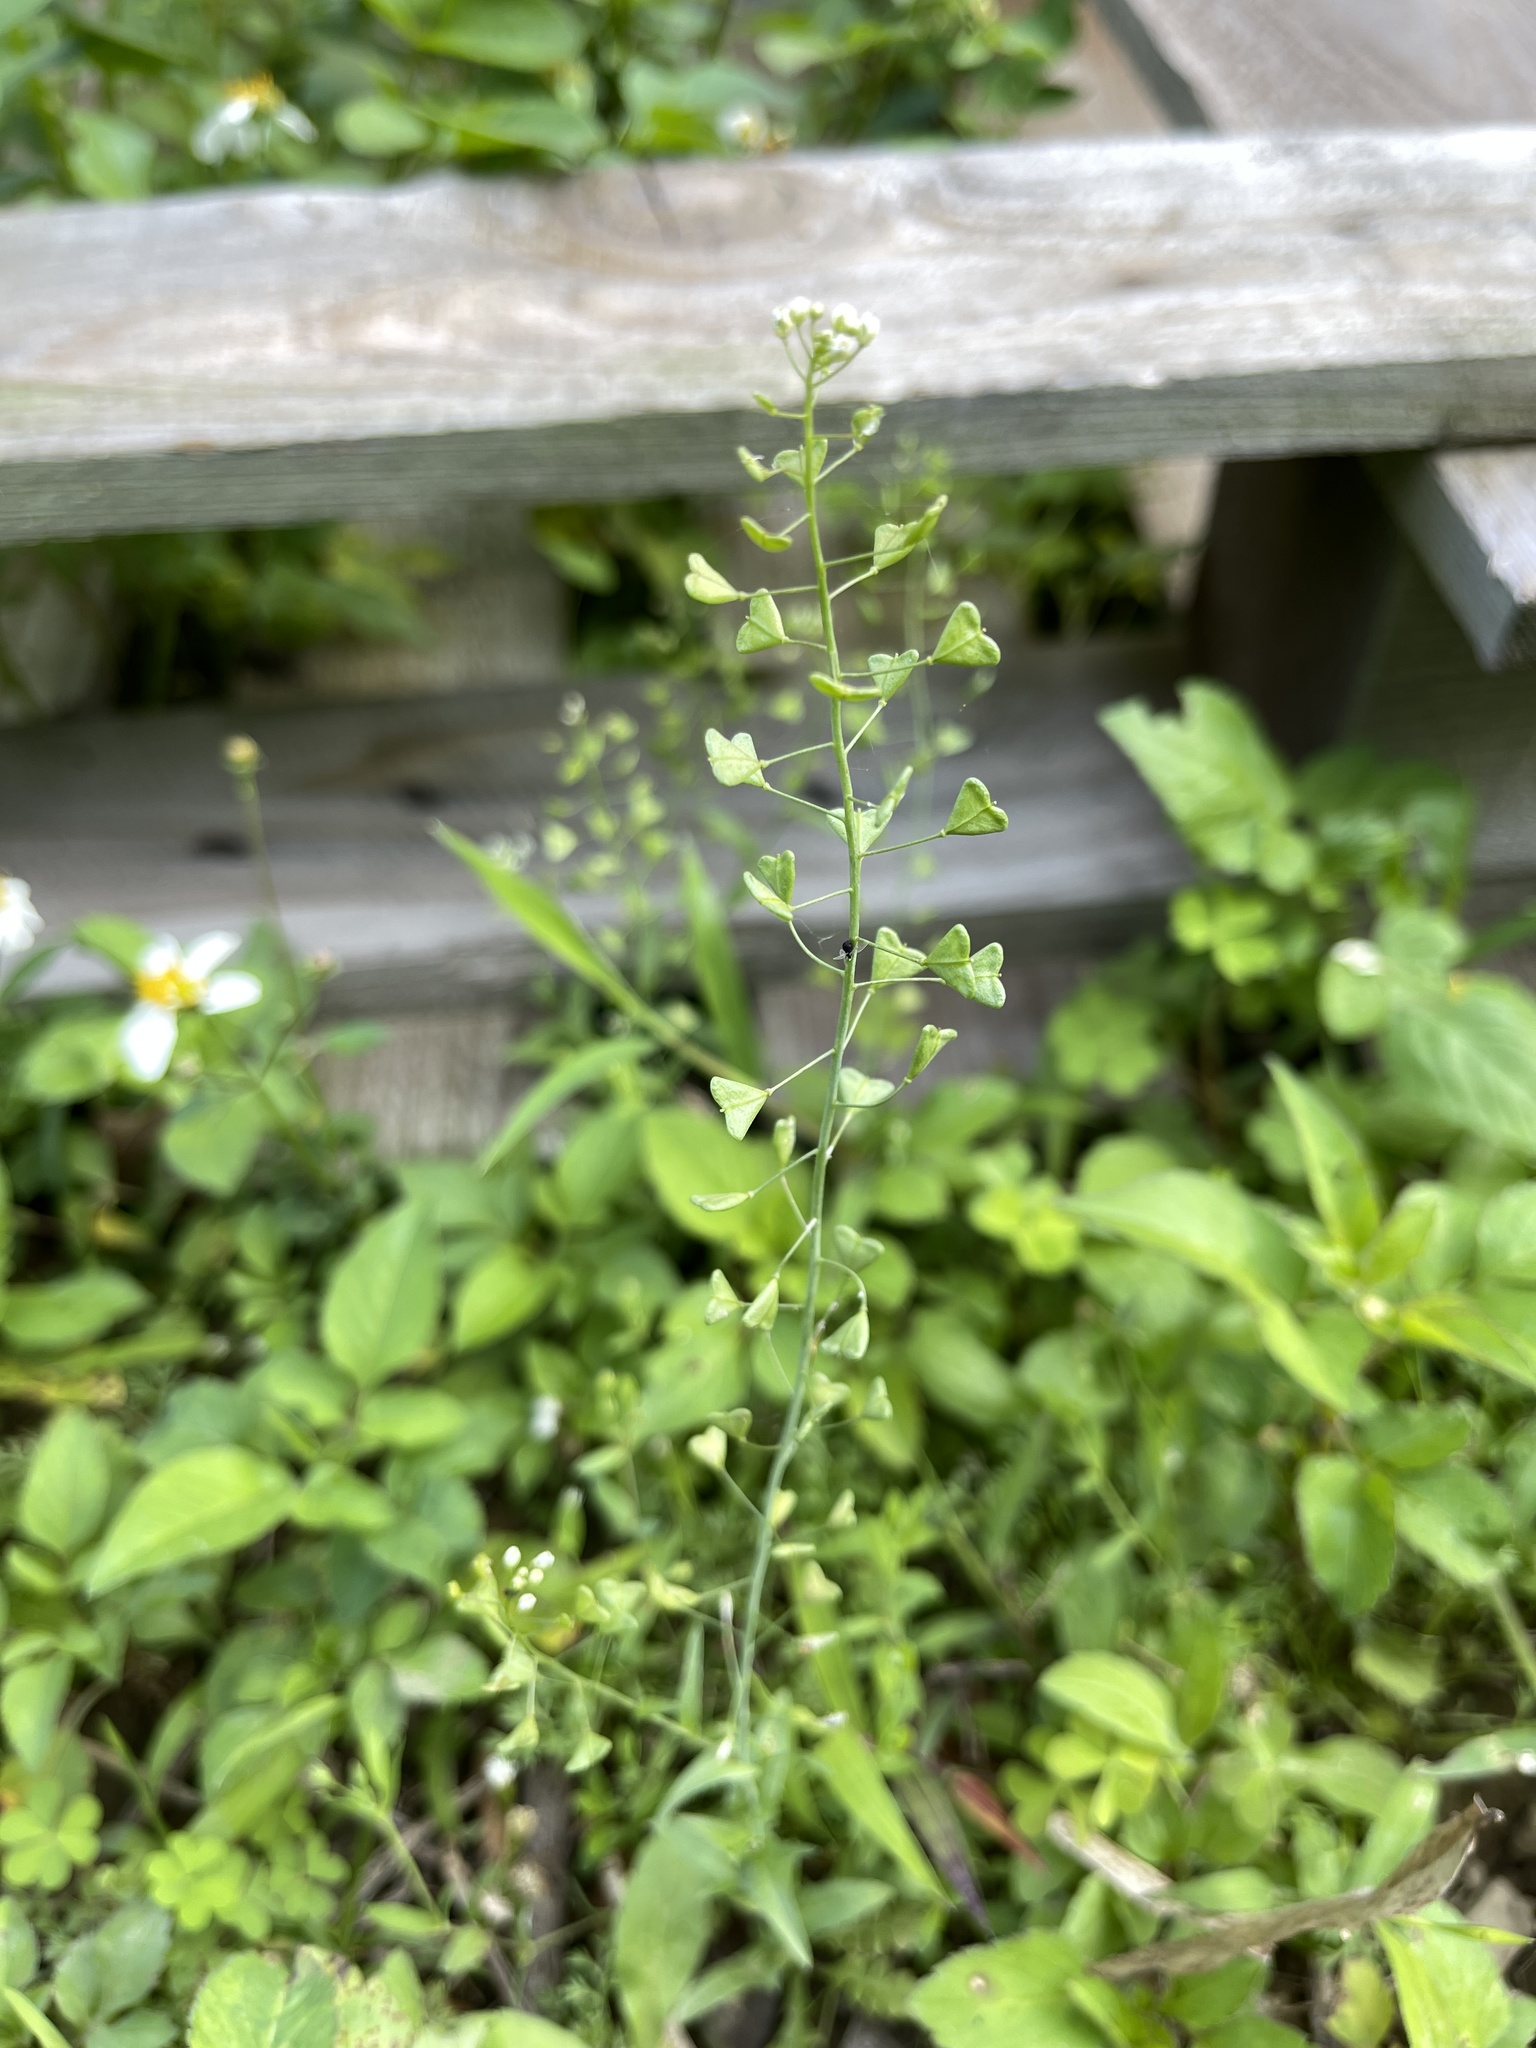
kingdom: Plantae
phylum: Tracheophyta
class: Magnoliopsida
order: Brassicales
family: Brassicaceae
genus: Capsella
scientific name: Capsella bursa-pastoris
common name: Shepherd's purse
